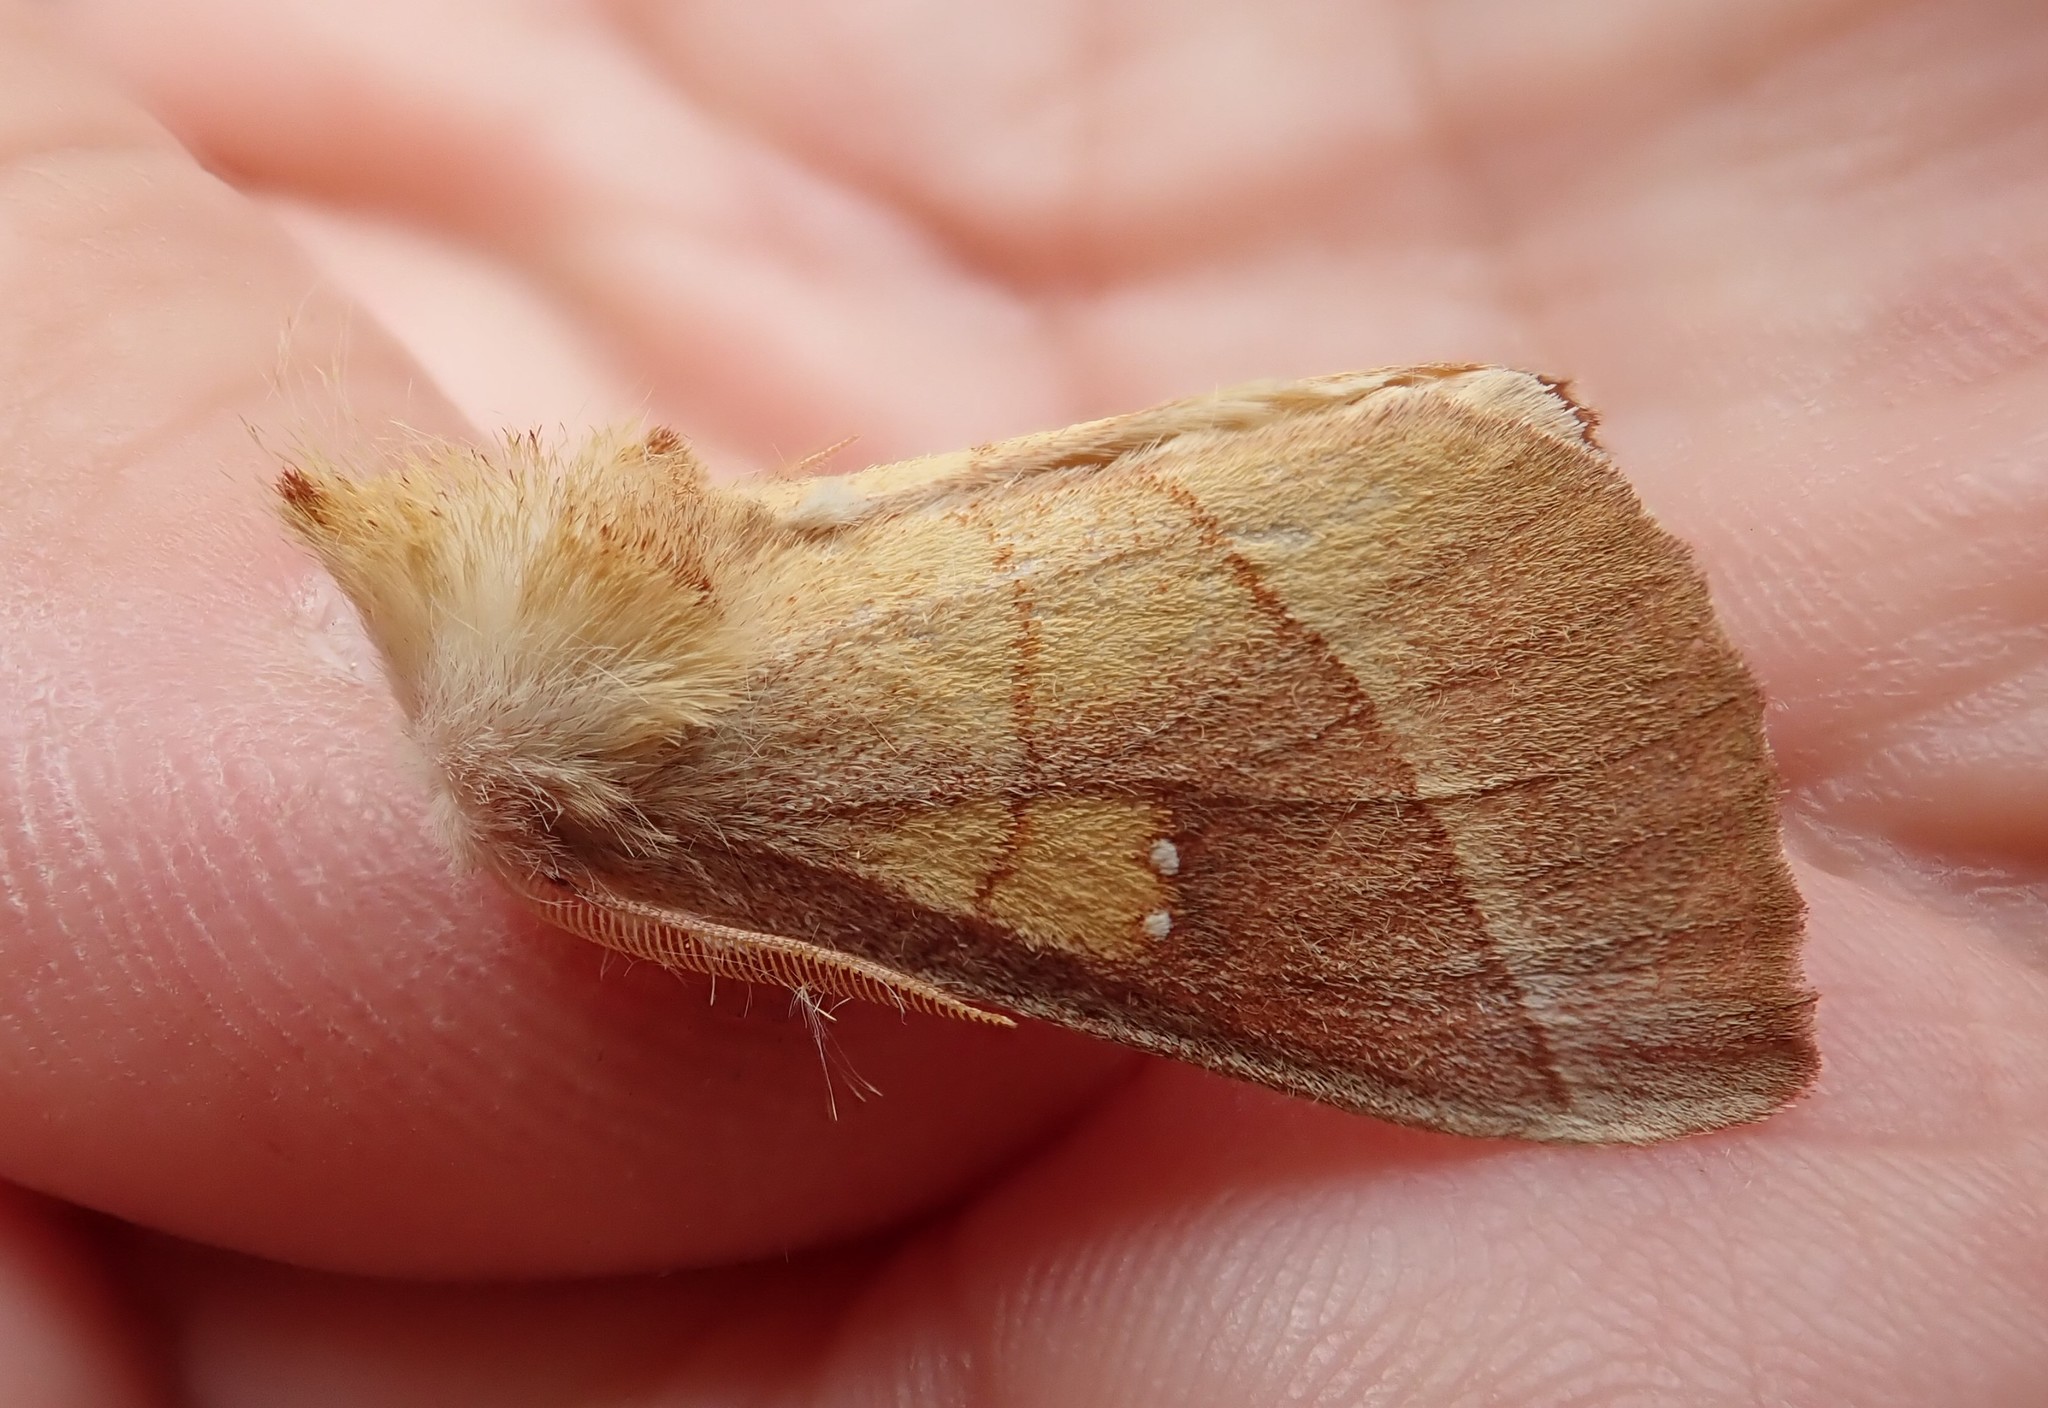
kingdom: Animalia
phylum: Arthropoda
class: Insecta
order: Lepidoptera
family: Notodontidae
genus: Nadata
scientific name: Nadata gibbosa
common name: White-dotted prominent
